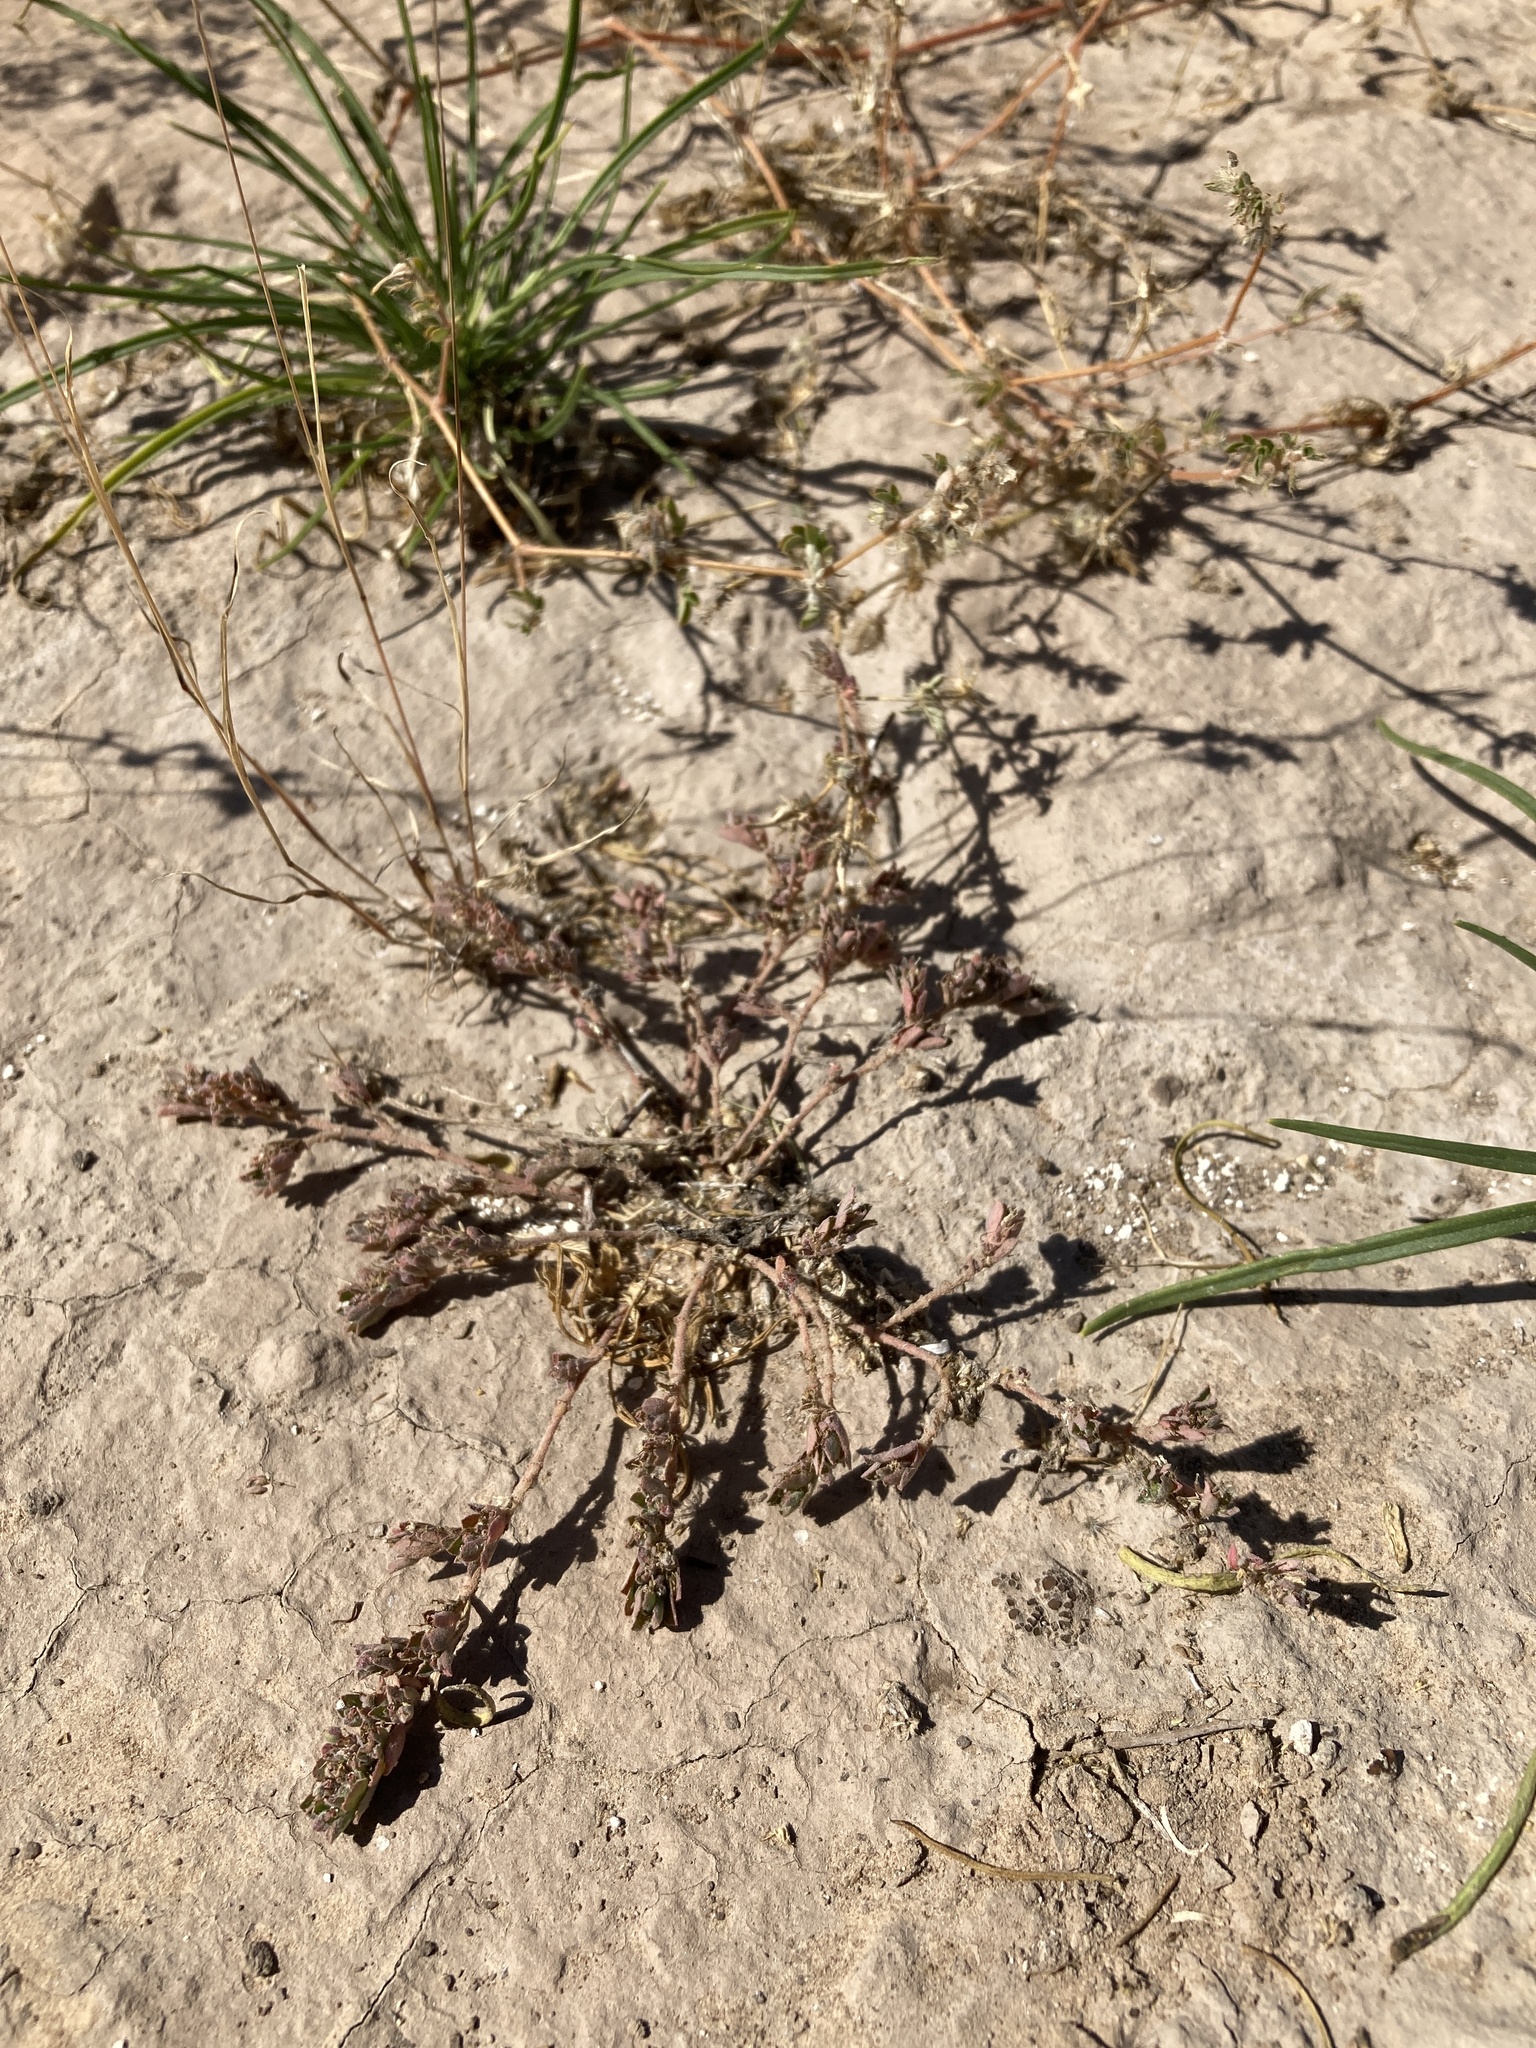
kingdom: Plantae
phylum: Tracheophyta
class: Magnoliopsida
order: Malpighiales
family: Euphorbiaceae
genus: Euphorbia
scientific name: Euphorbia stictospora
